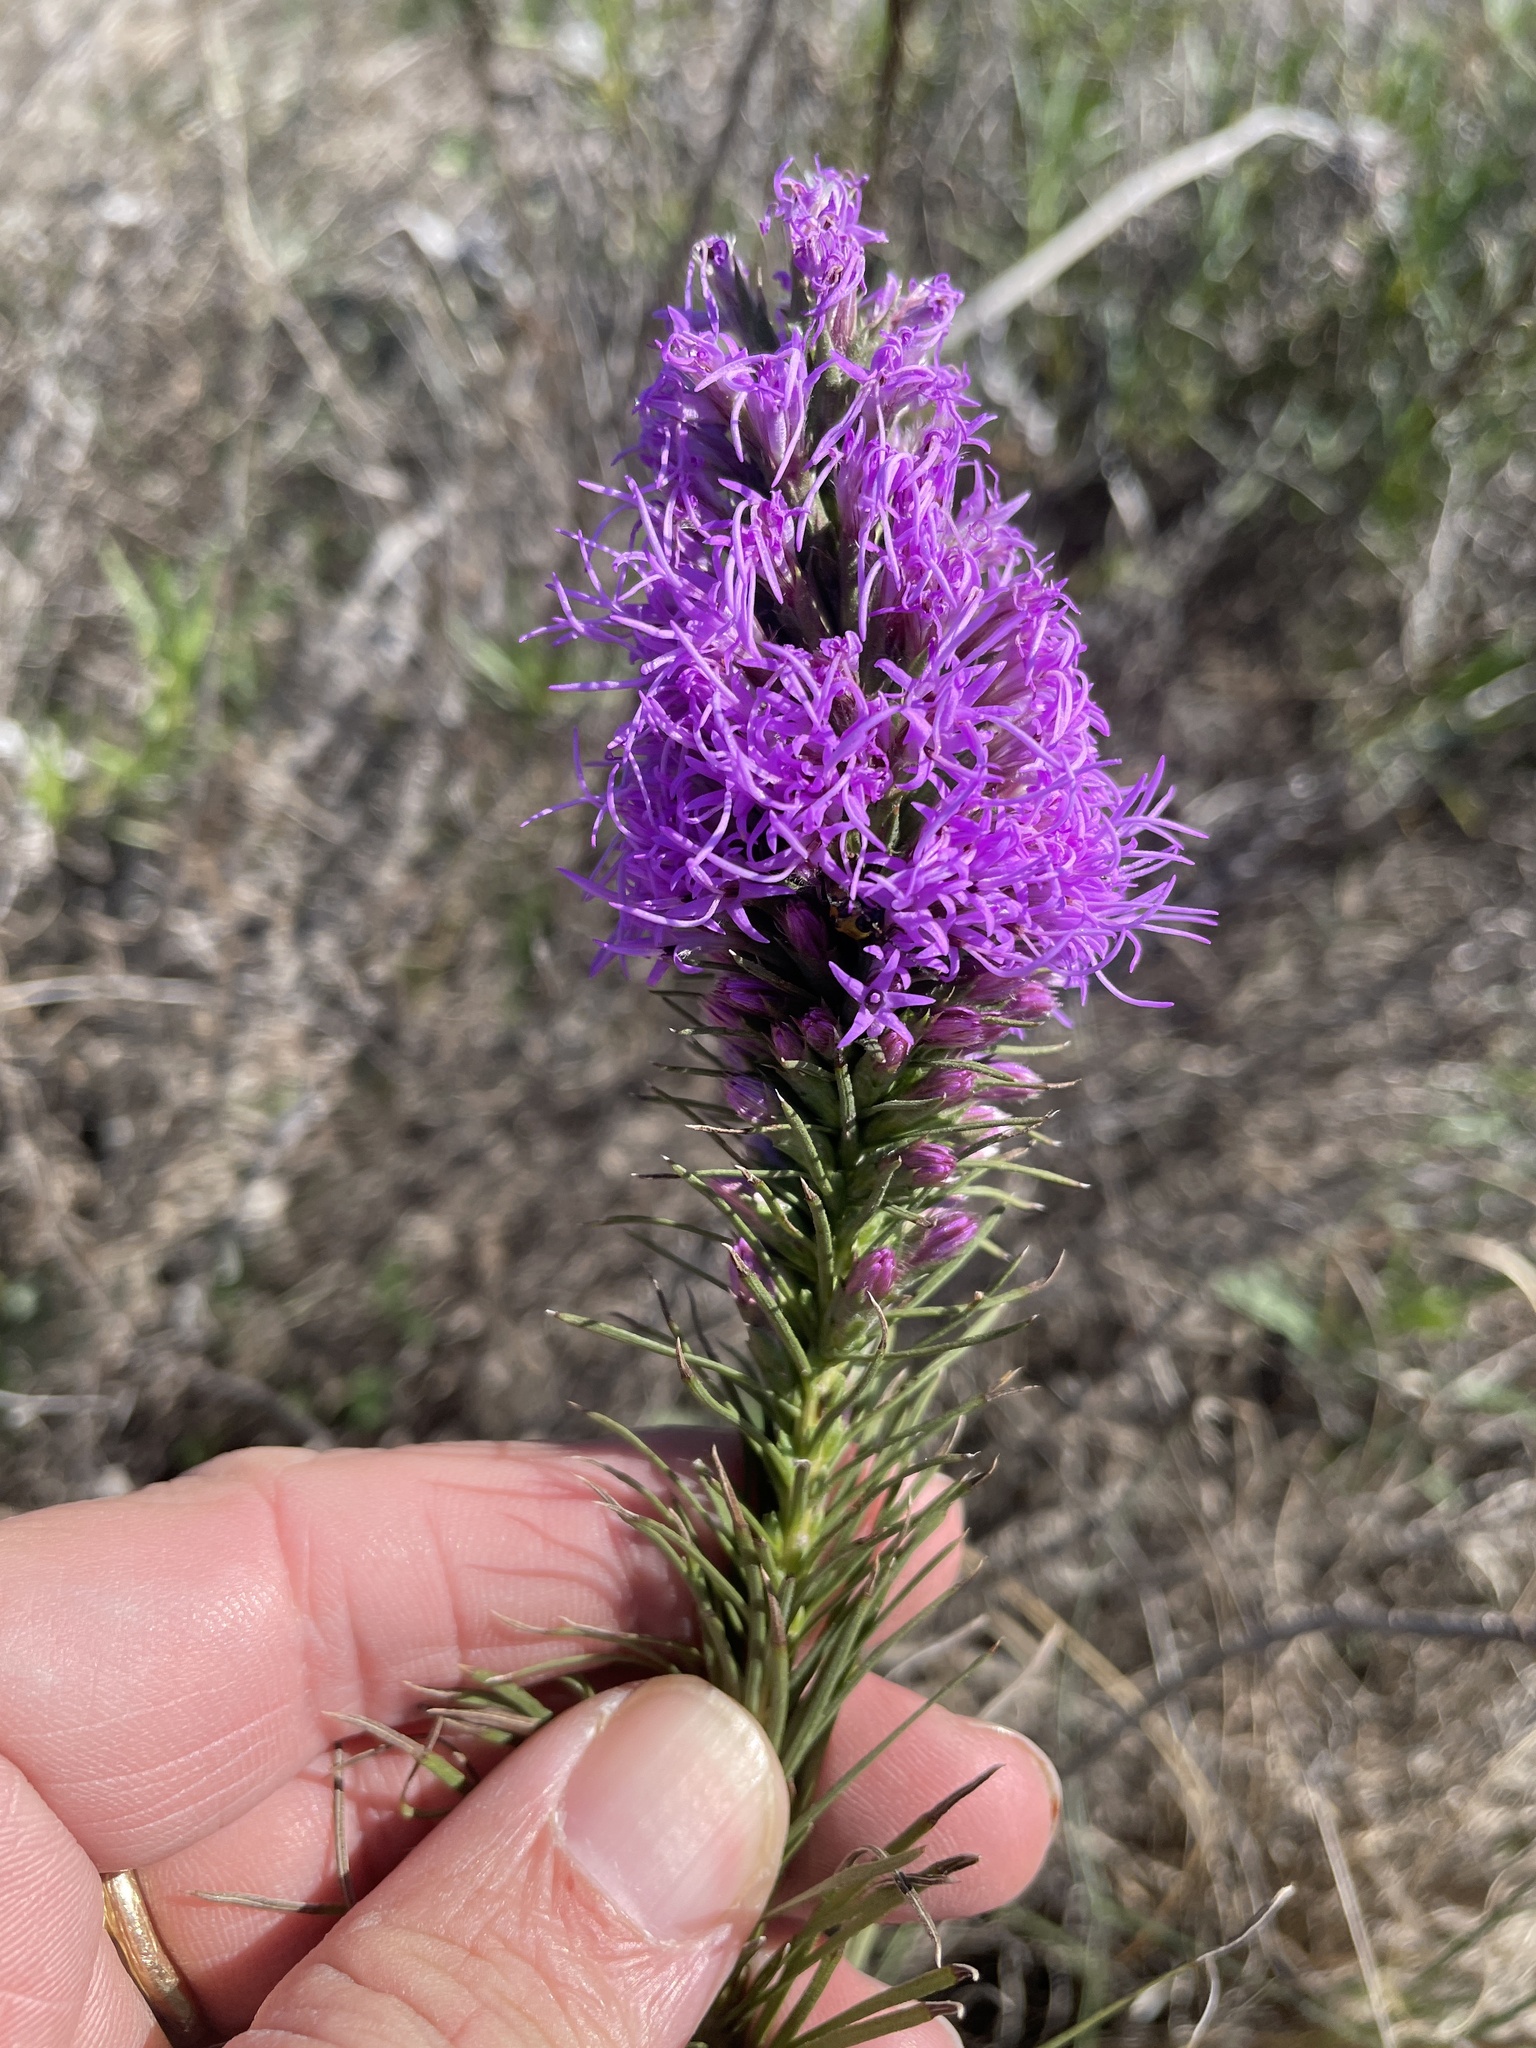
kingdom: Plantae
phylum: Tracheophyta
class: Magnoliopsida
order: Asterales
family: Asteraceae
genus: Liatris
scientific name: Liatris punctata
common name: Dotted gayfeather
